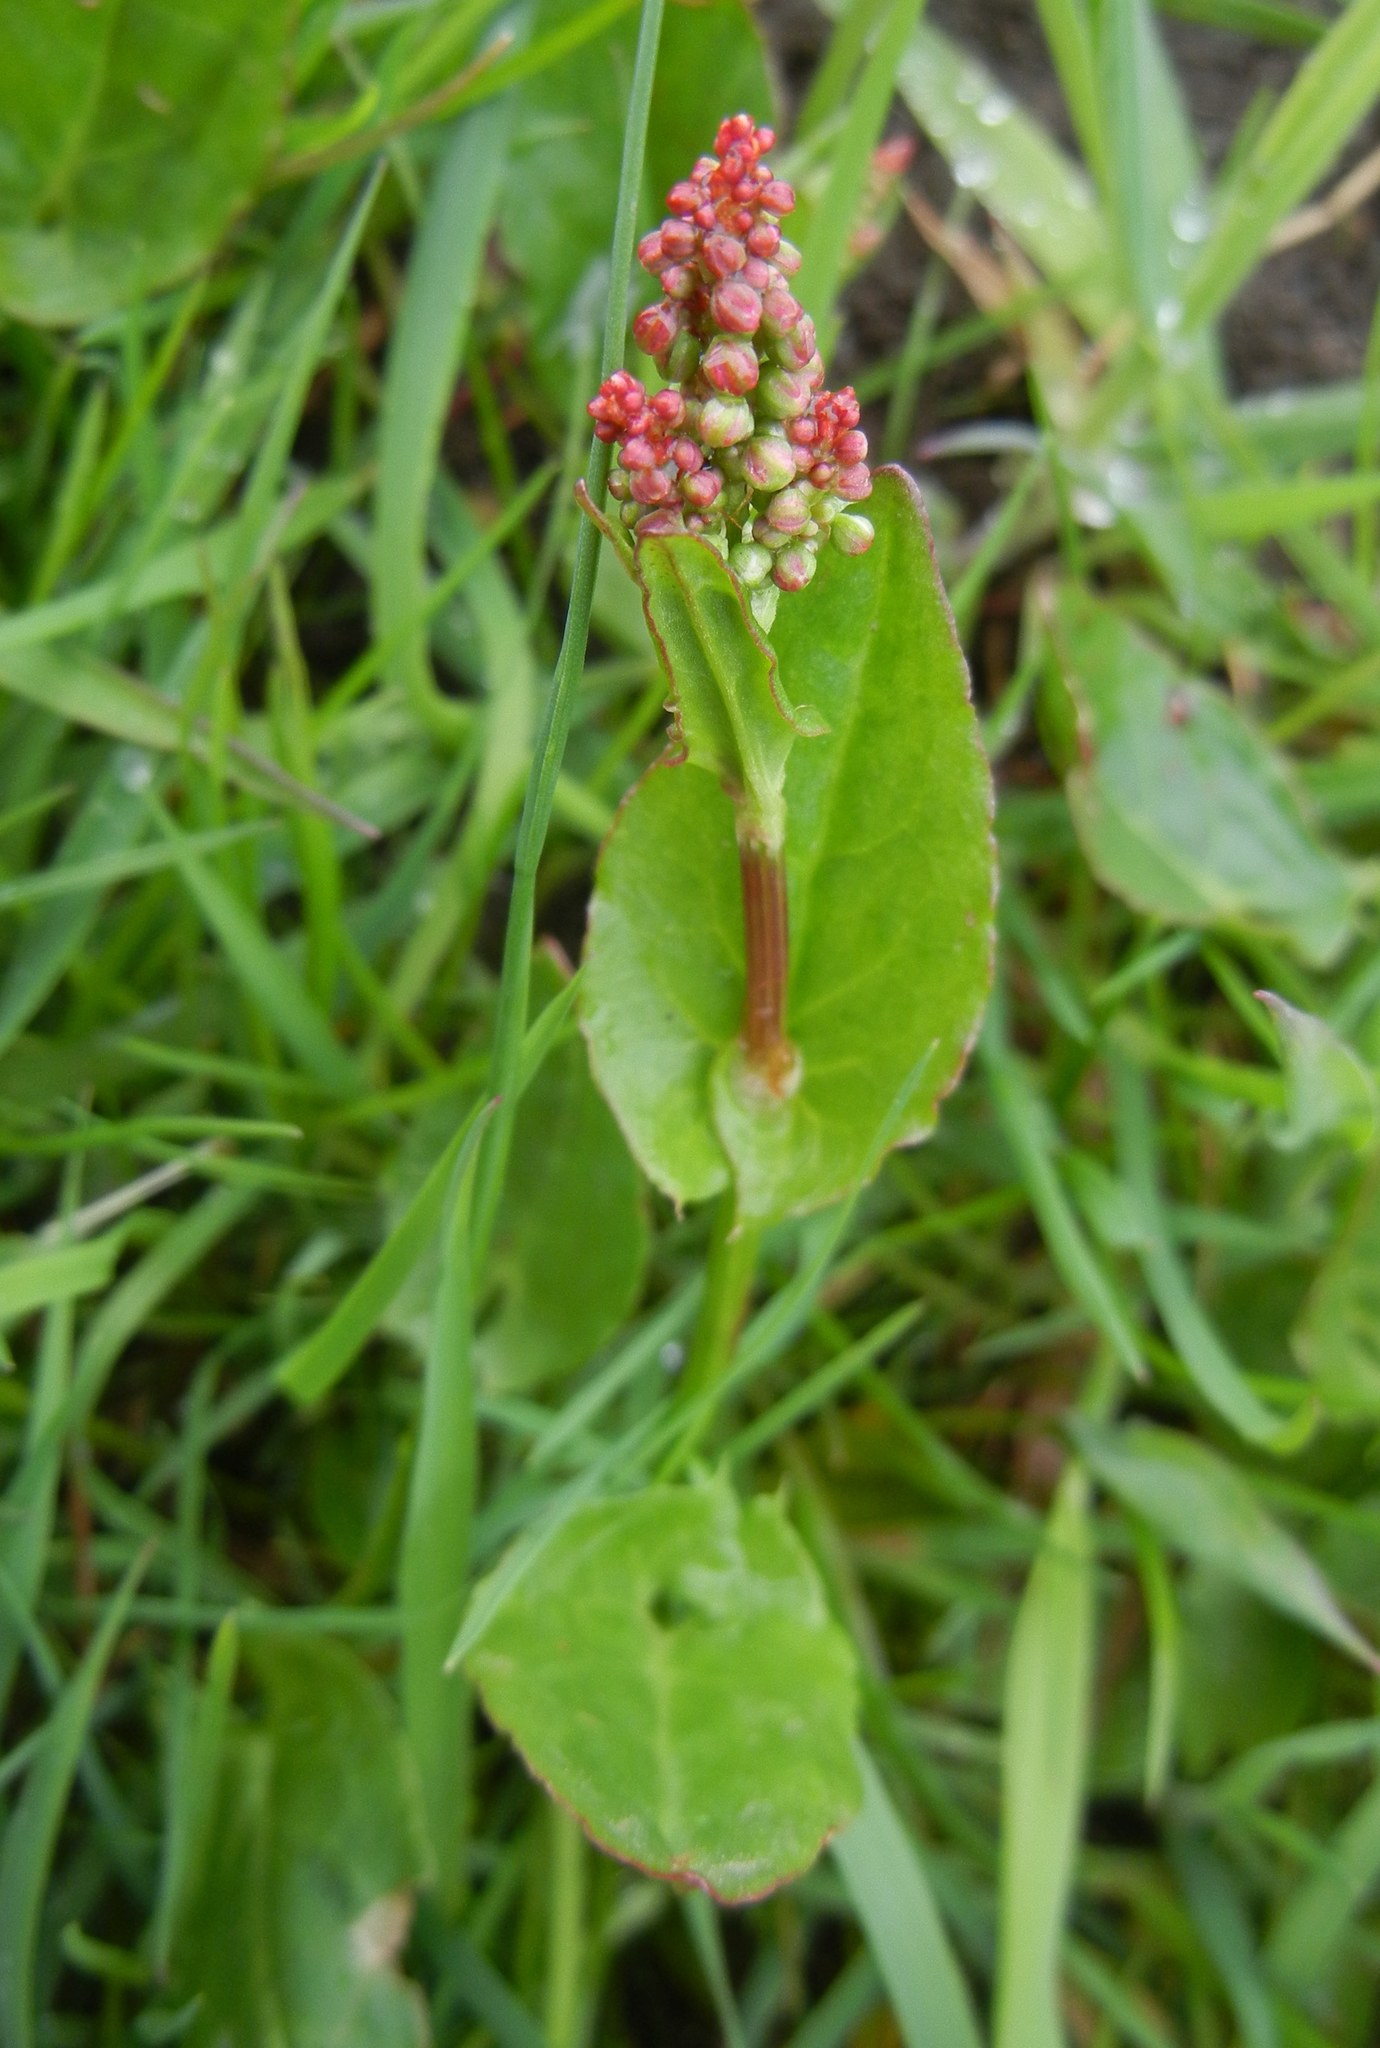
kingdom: Plantae
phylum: Tracheophyta
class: Magnoliopsida
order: Caryophyllales
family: Polygonaceae
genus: Rumex
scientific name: Rumex acetosa
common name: Garden sorrel
